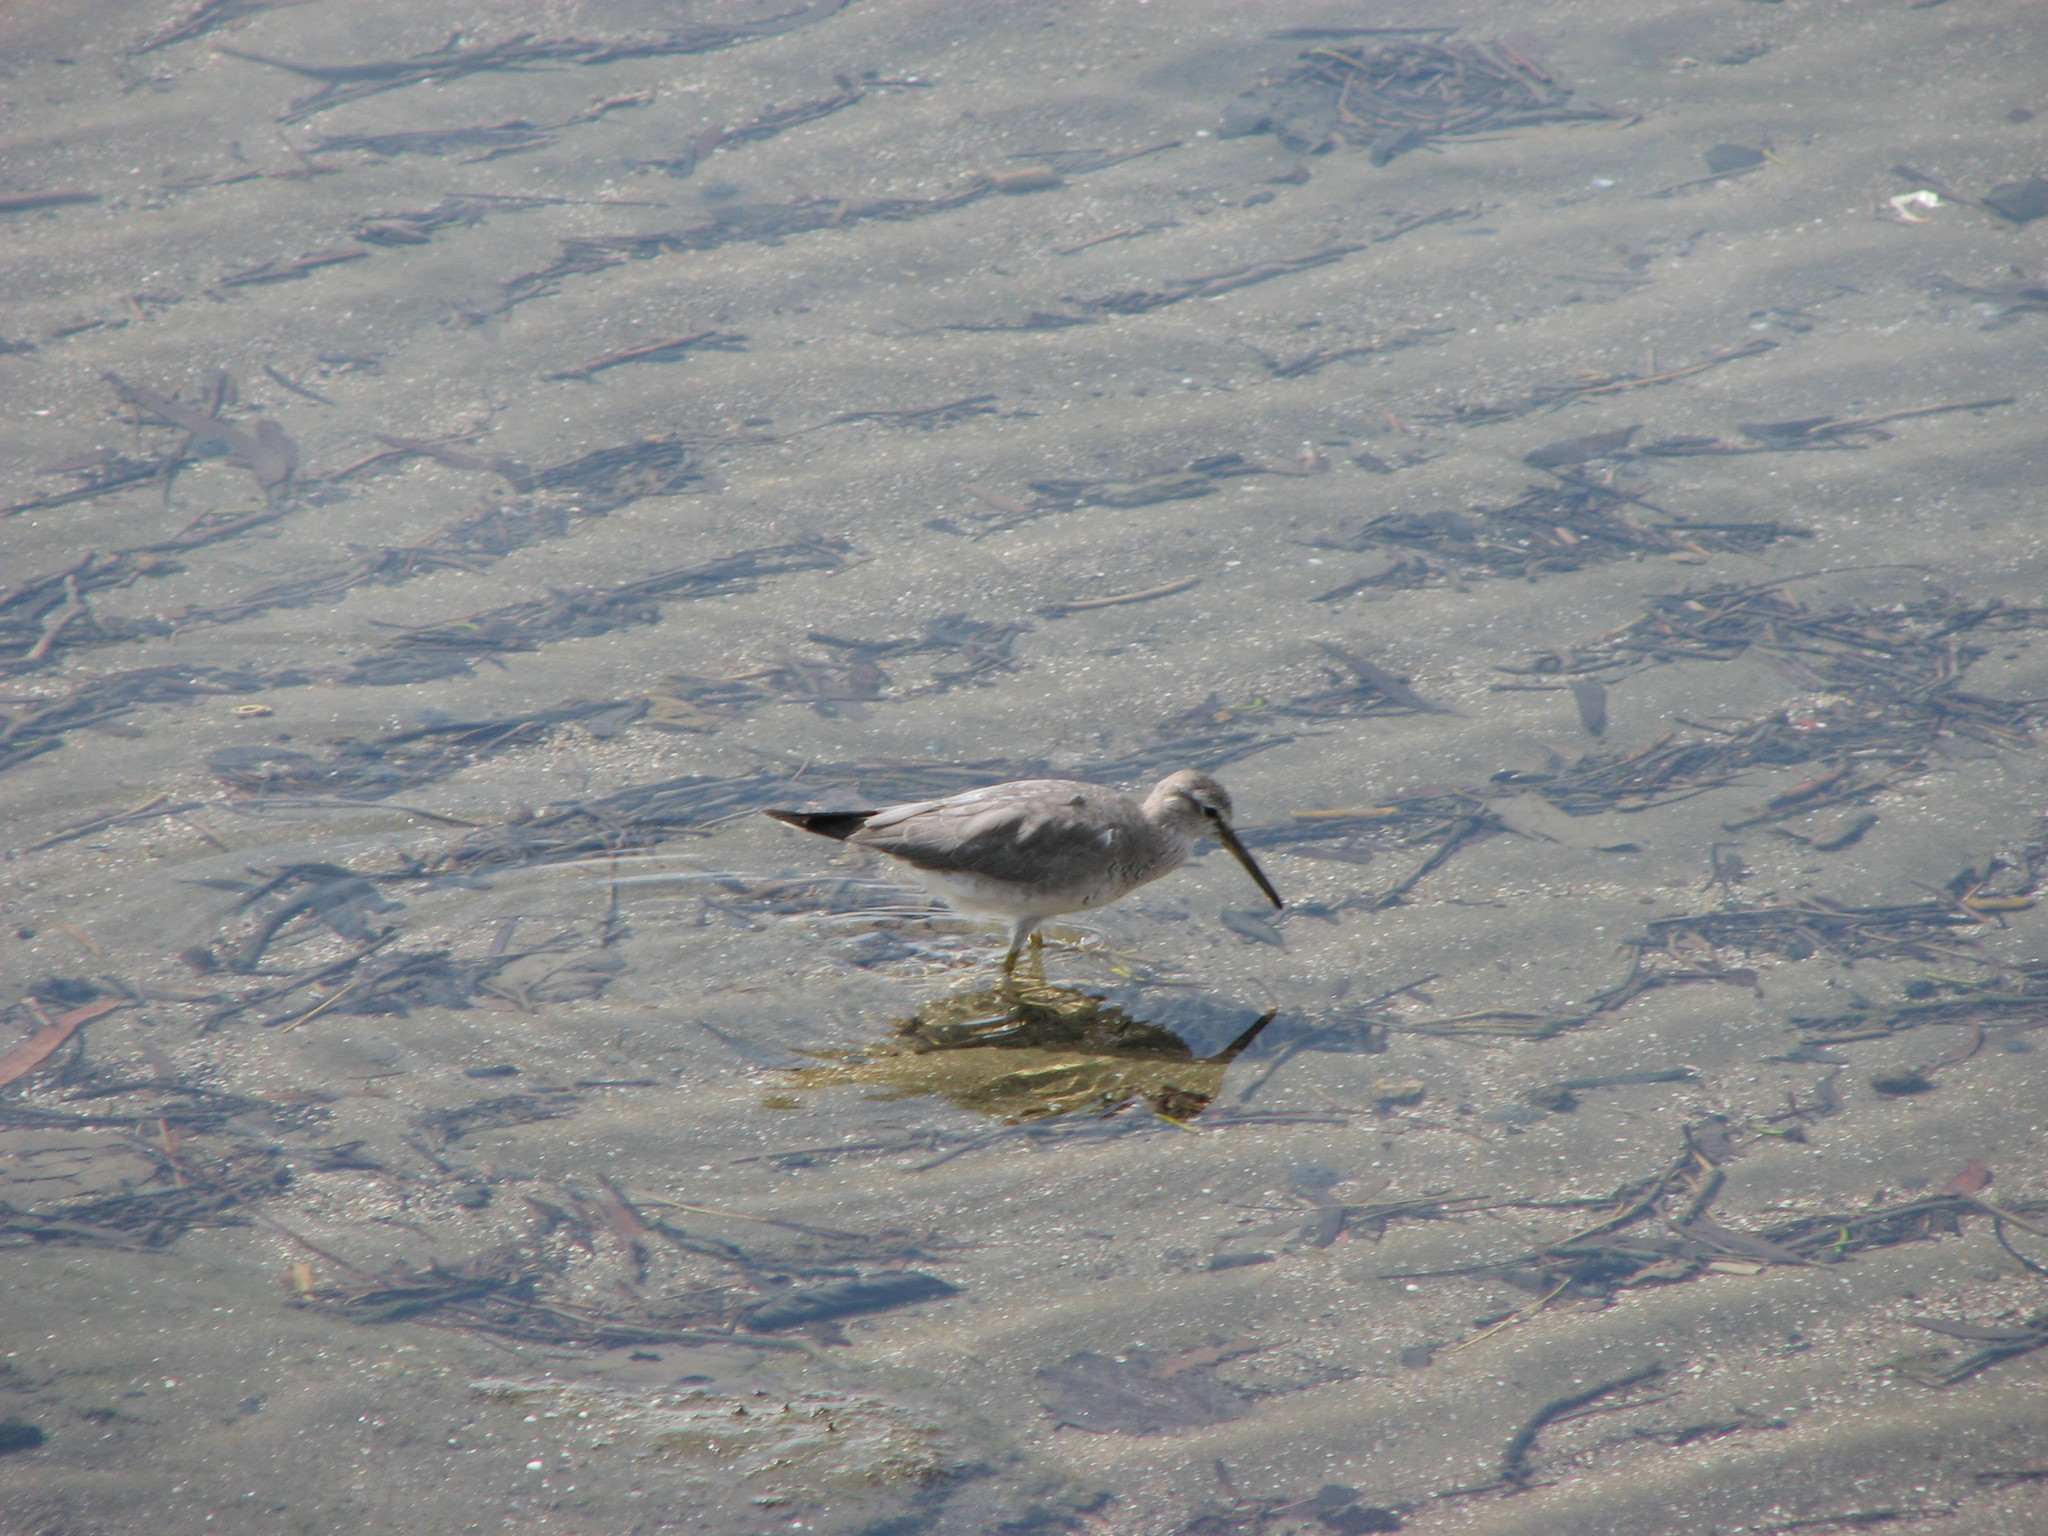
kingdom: Animalia
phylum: Chordata
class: Aves
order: Charadriiformes
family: Scolopacidae
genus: Tringa
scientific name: Tringa brevipes
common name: Grey-tailed tattler
